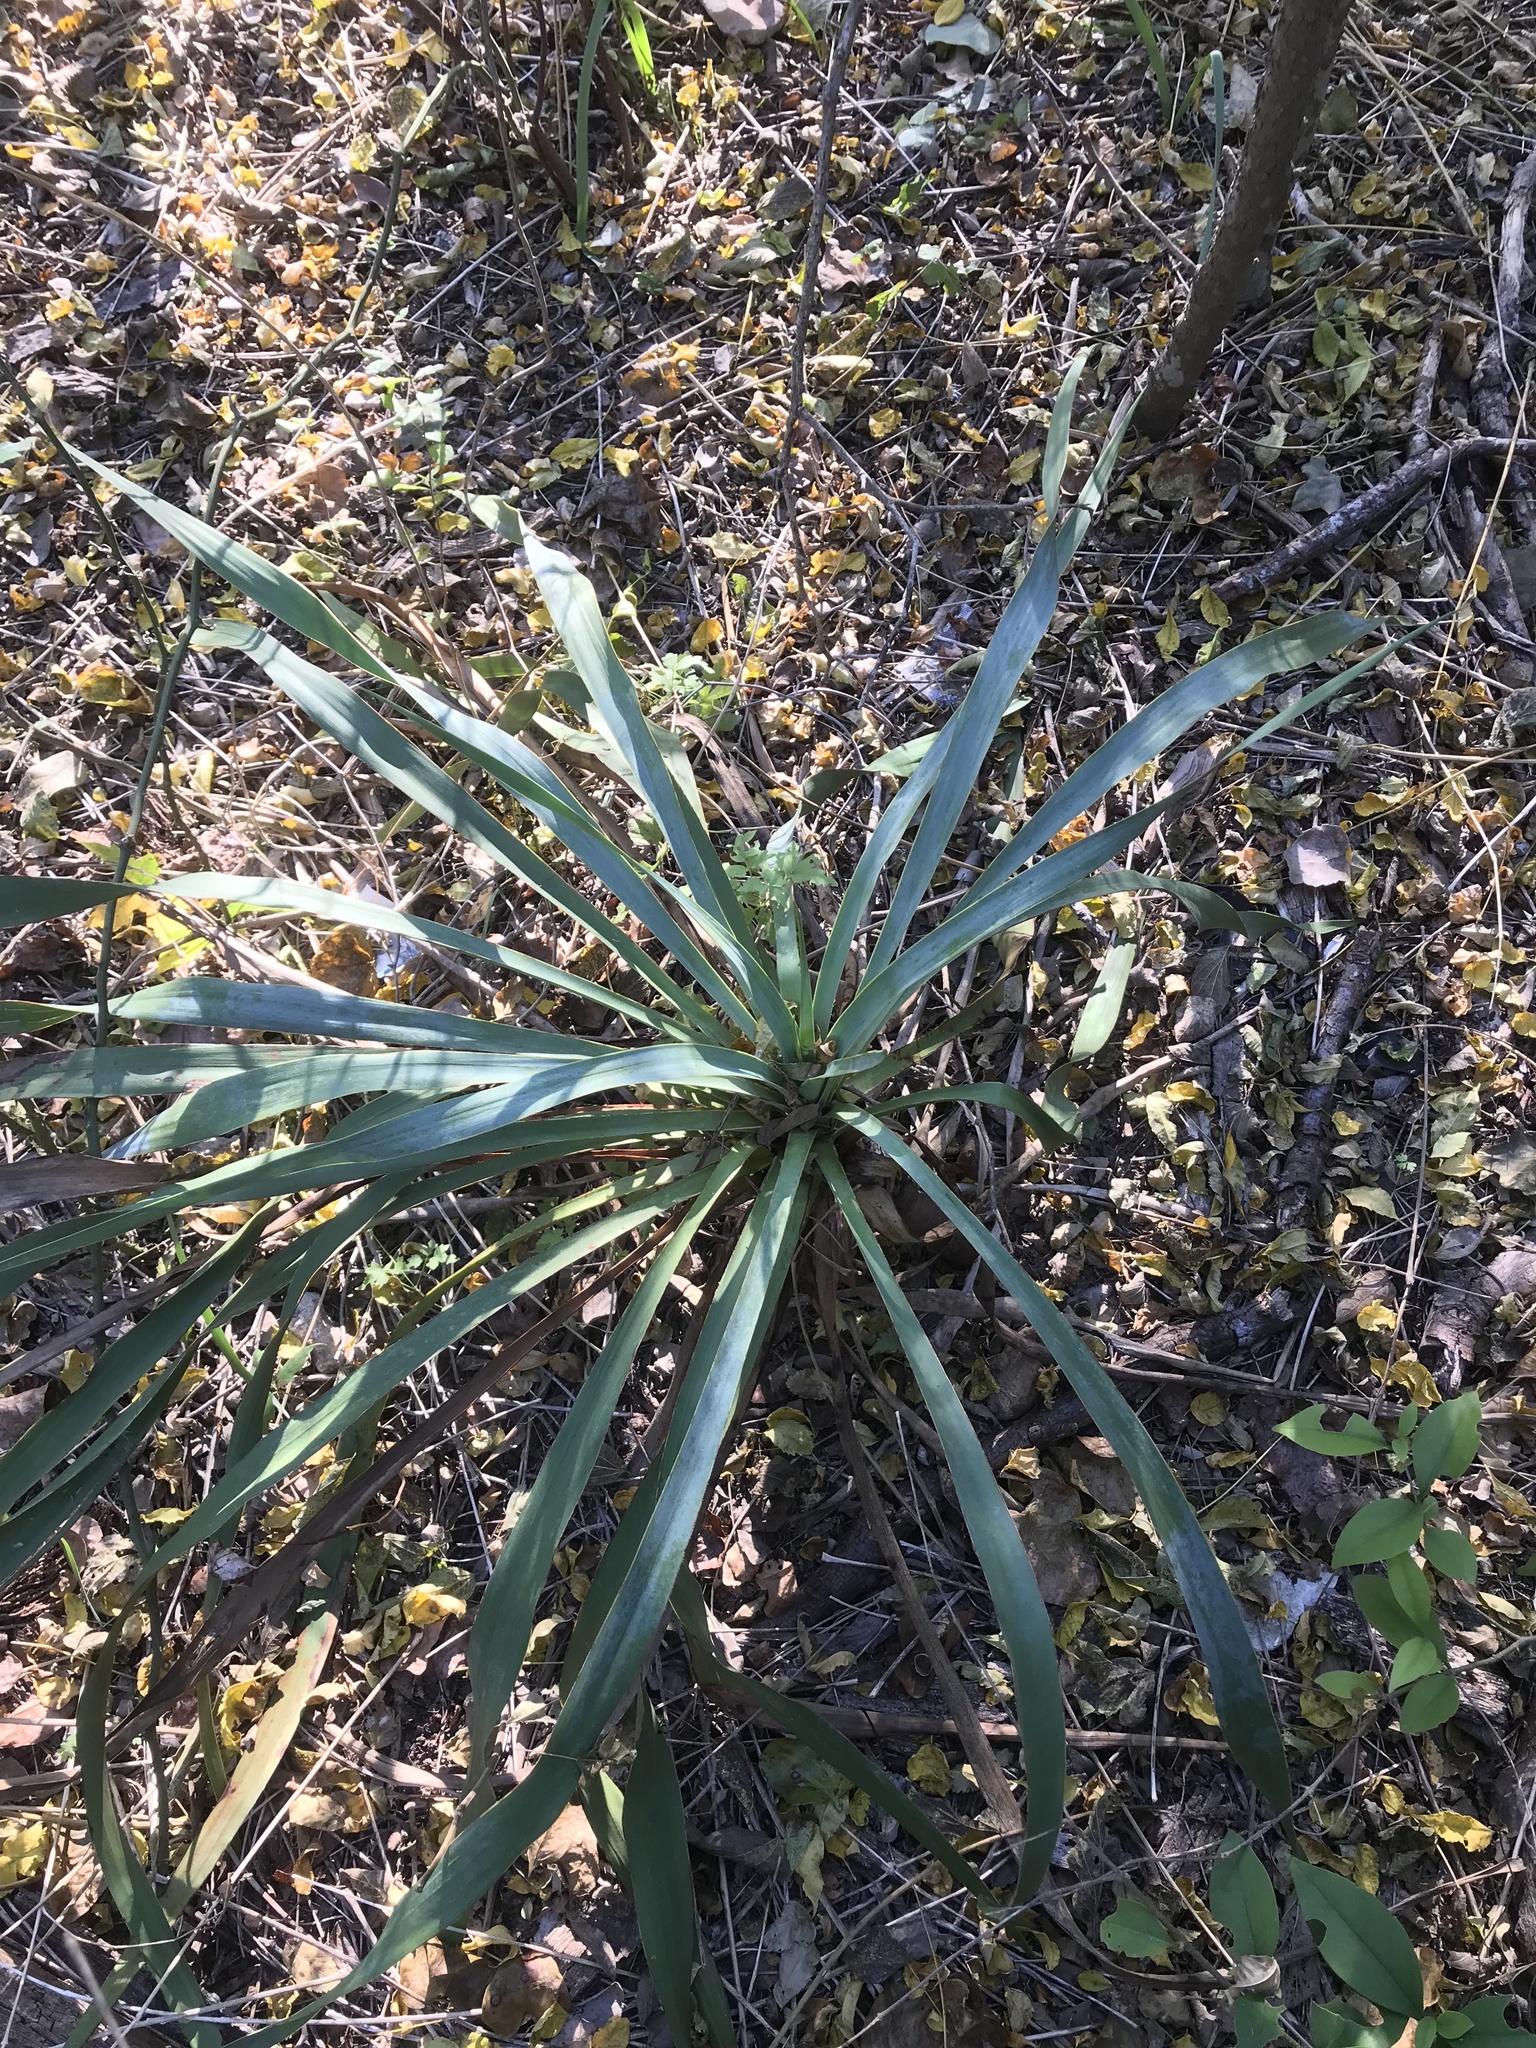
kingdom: Plantae
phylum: Tracheophyta
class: Liliopsida
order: Asparagales
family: Asparagaceae
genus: Yucca
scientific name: Yucca rupicola
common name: Twisted-leaf spanish-dagger
